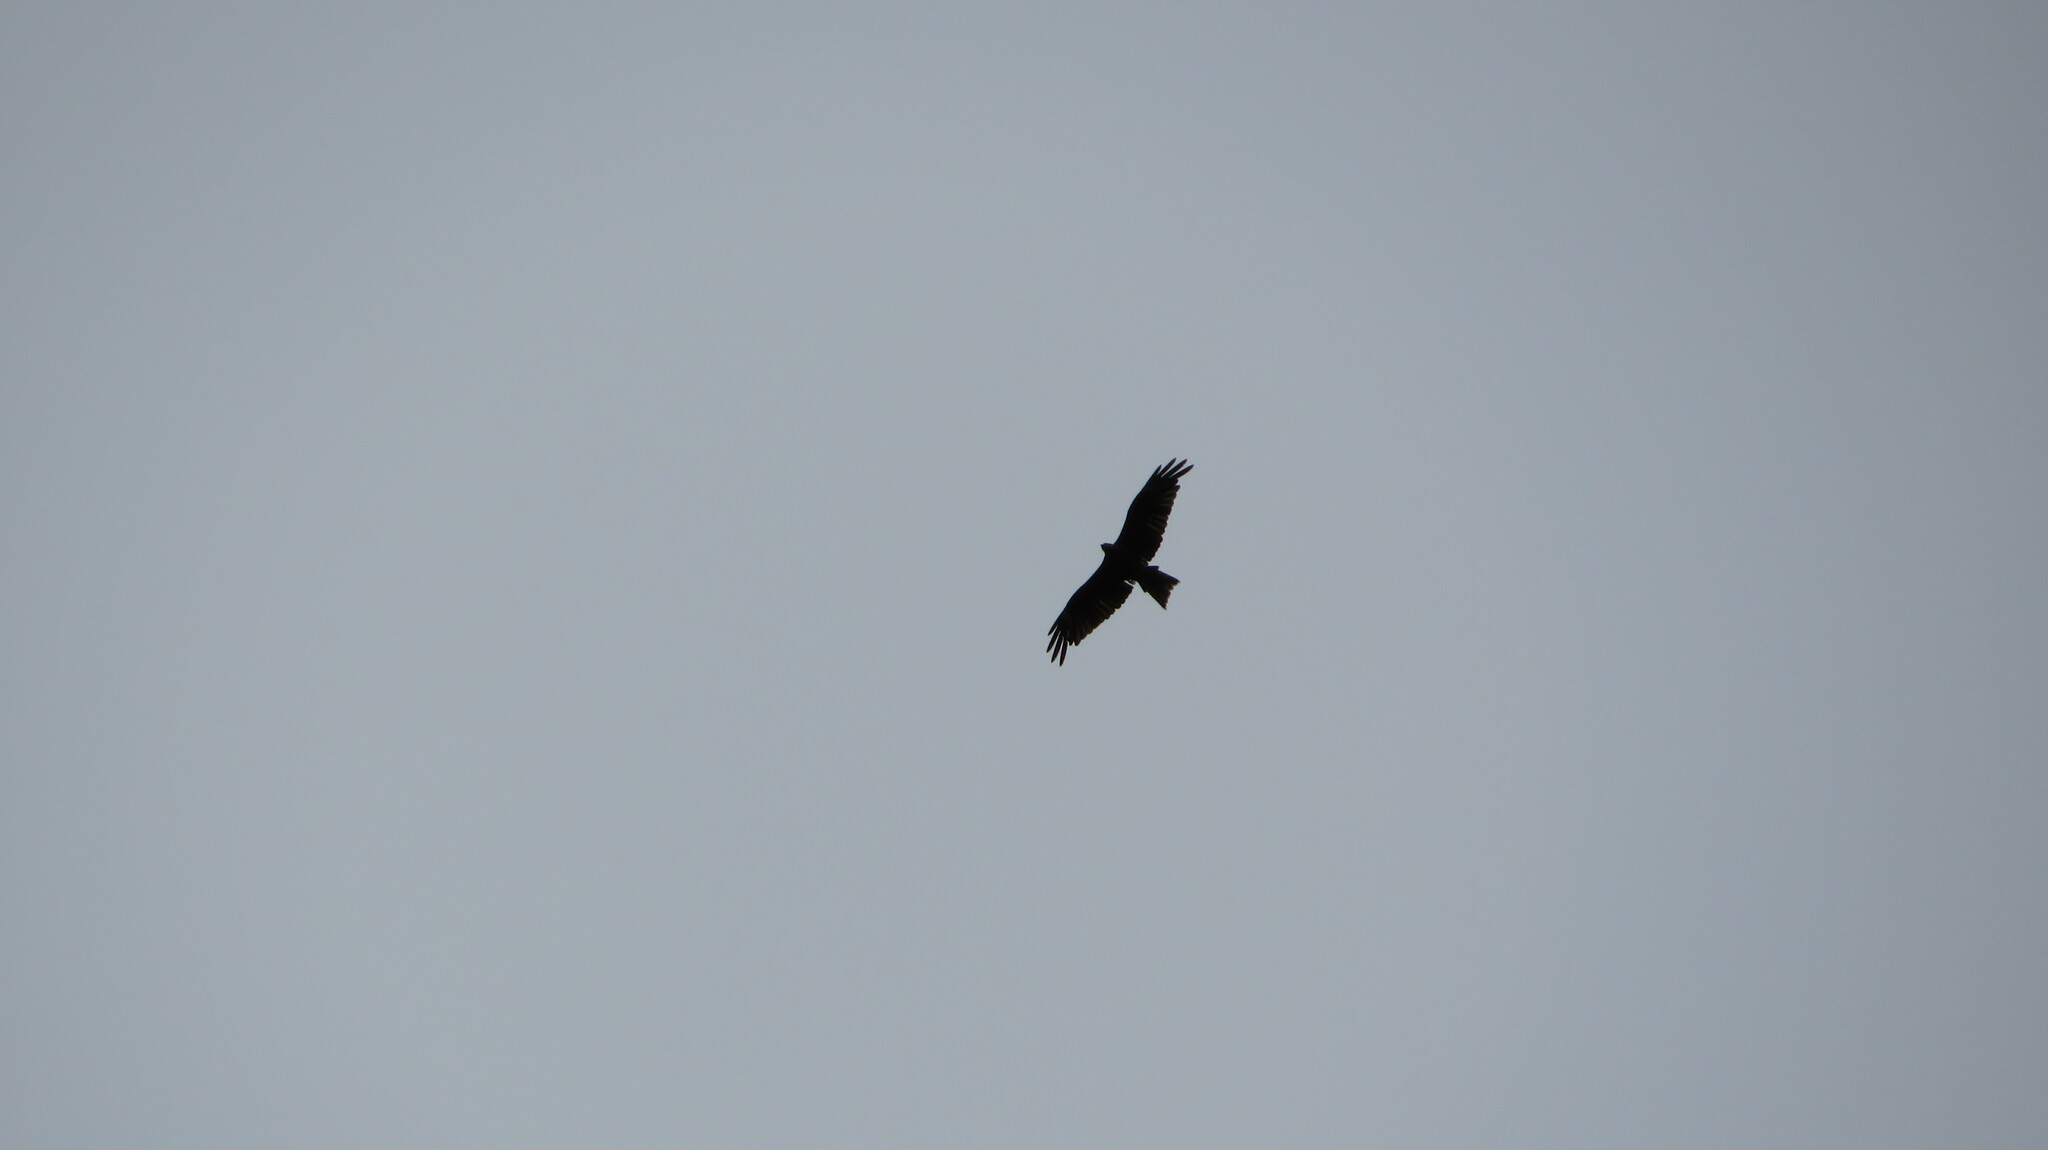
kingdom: Animalia
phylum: Chordata
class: Aves
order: Accipitriformes
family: Accipitridae
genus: Milvus
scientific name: Milvus migrans
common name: Black kite
